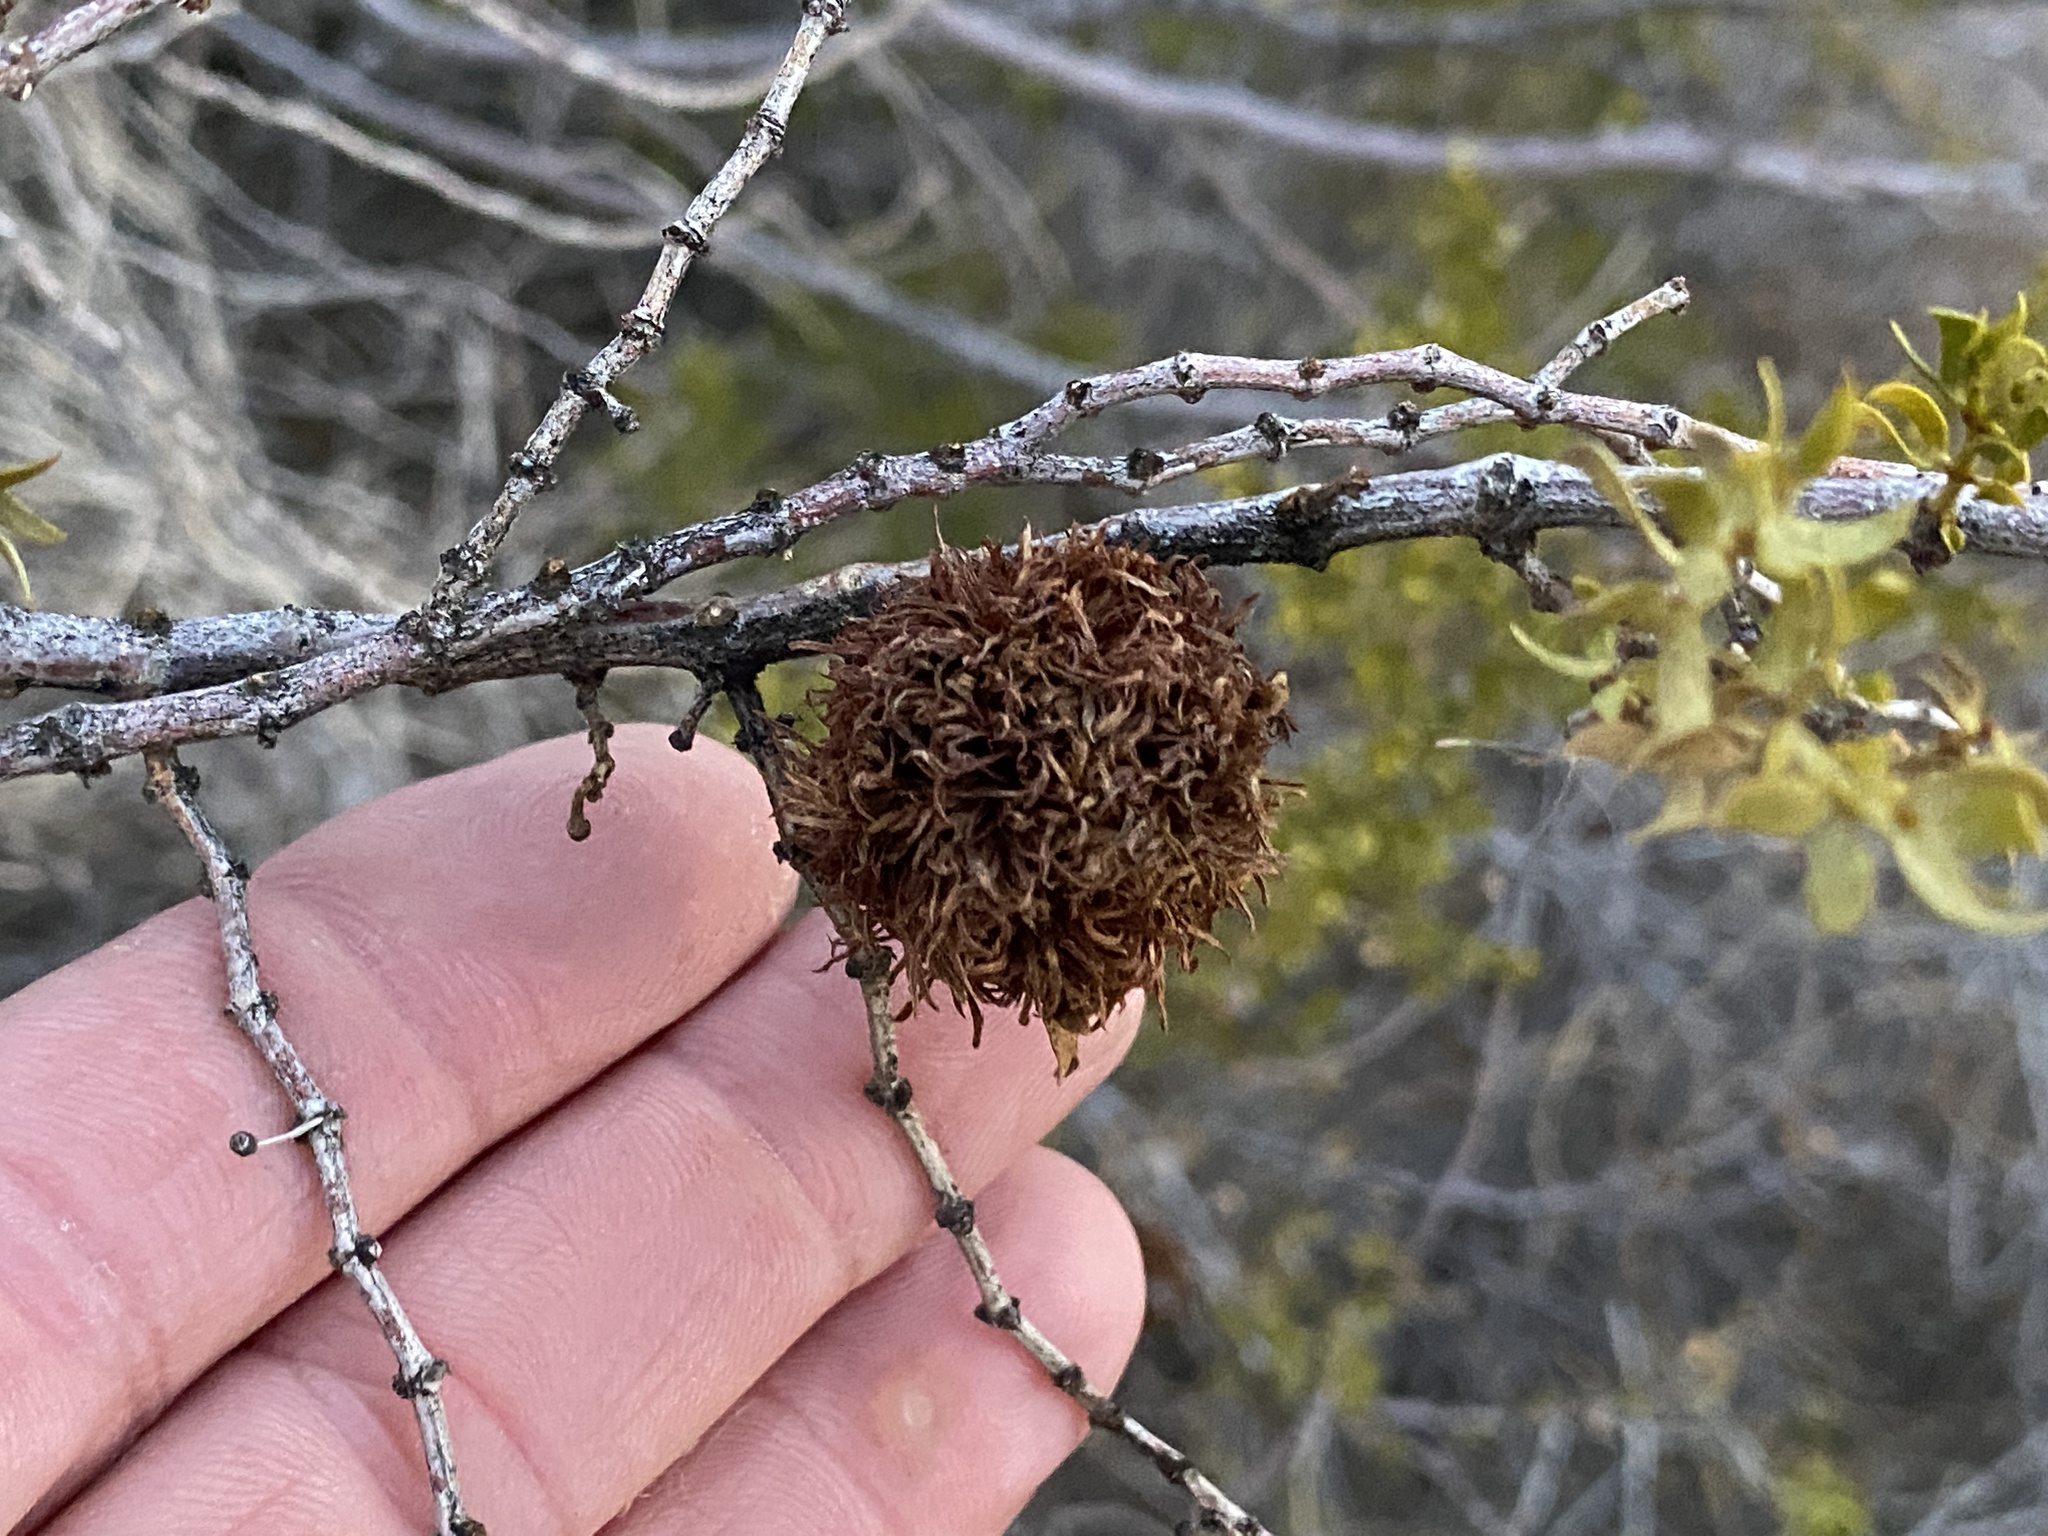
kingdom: Animalia
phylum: Arthropoda
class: Insecta
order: Diptera
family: Cecidomyiidae
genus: Asphondylia
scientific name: Asphondylia auripila
